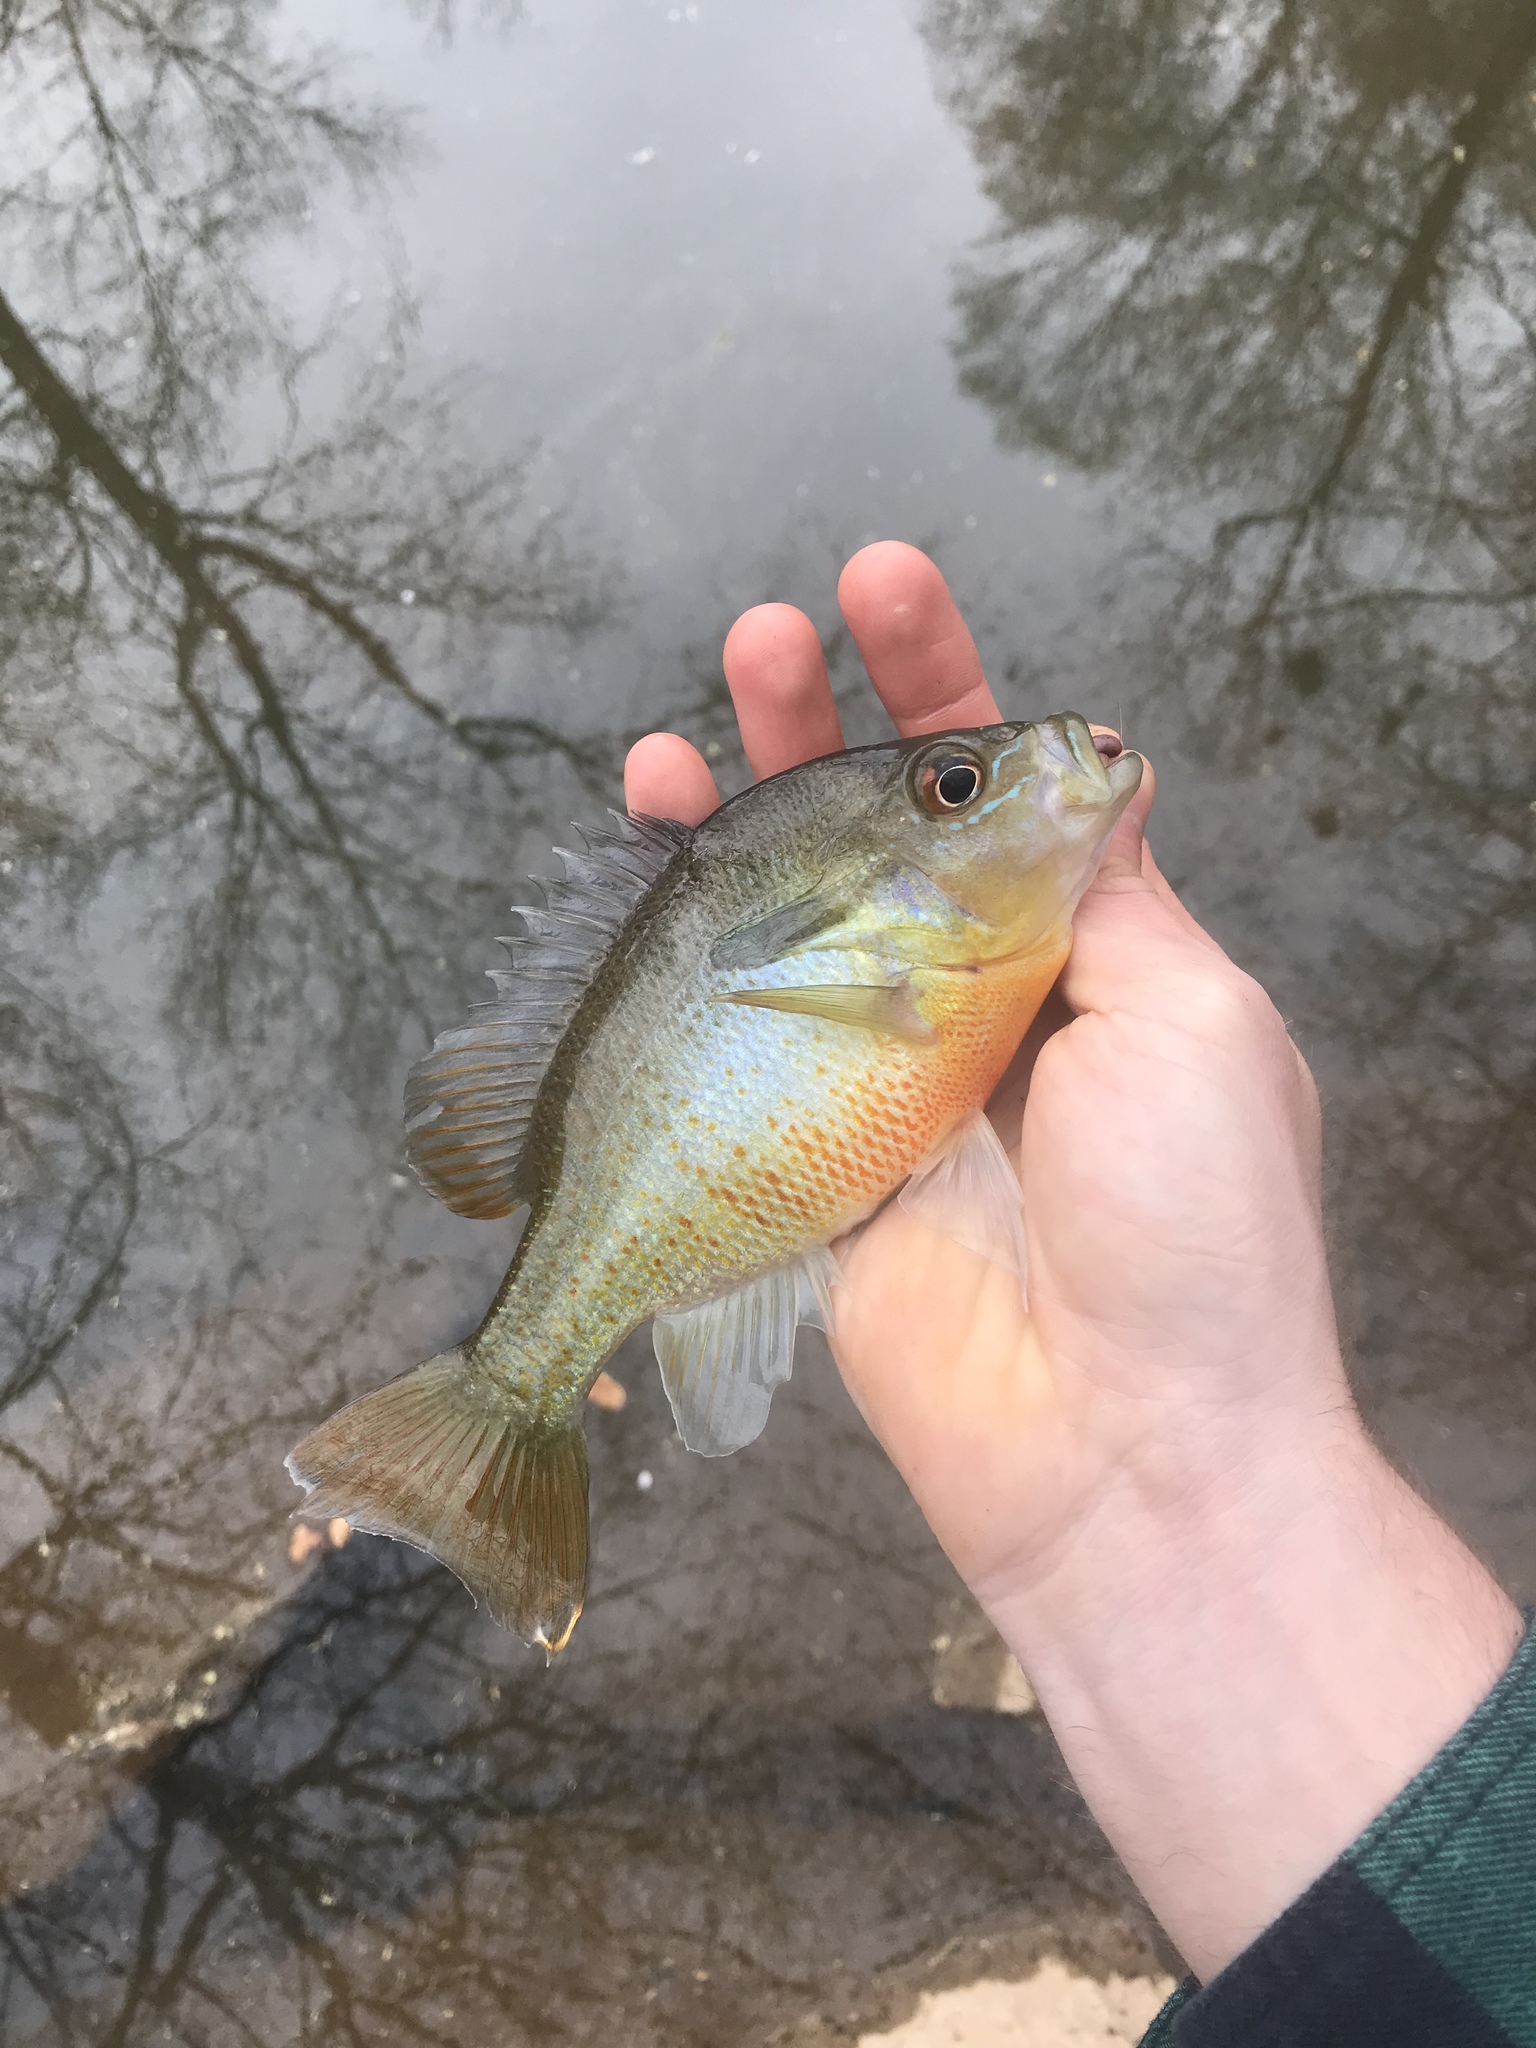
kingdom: Animalia
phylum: Chordata
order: Perciformes
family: Centrarchidae
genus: Lepomis
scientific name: Lepomis auritus
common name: Redbreast sunfish
